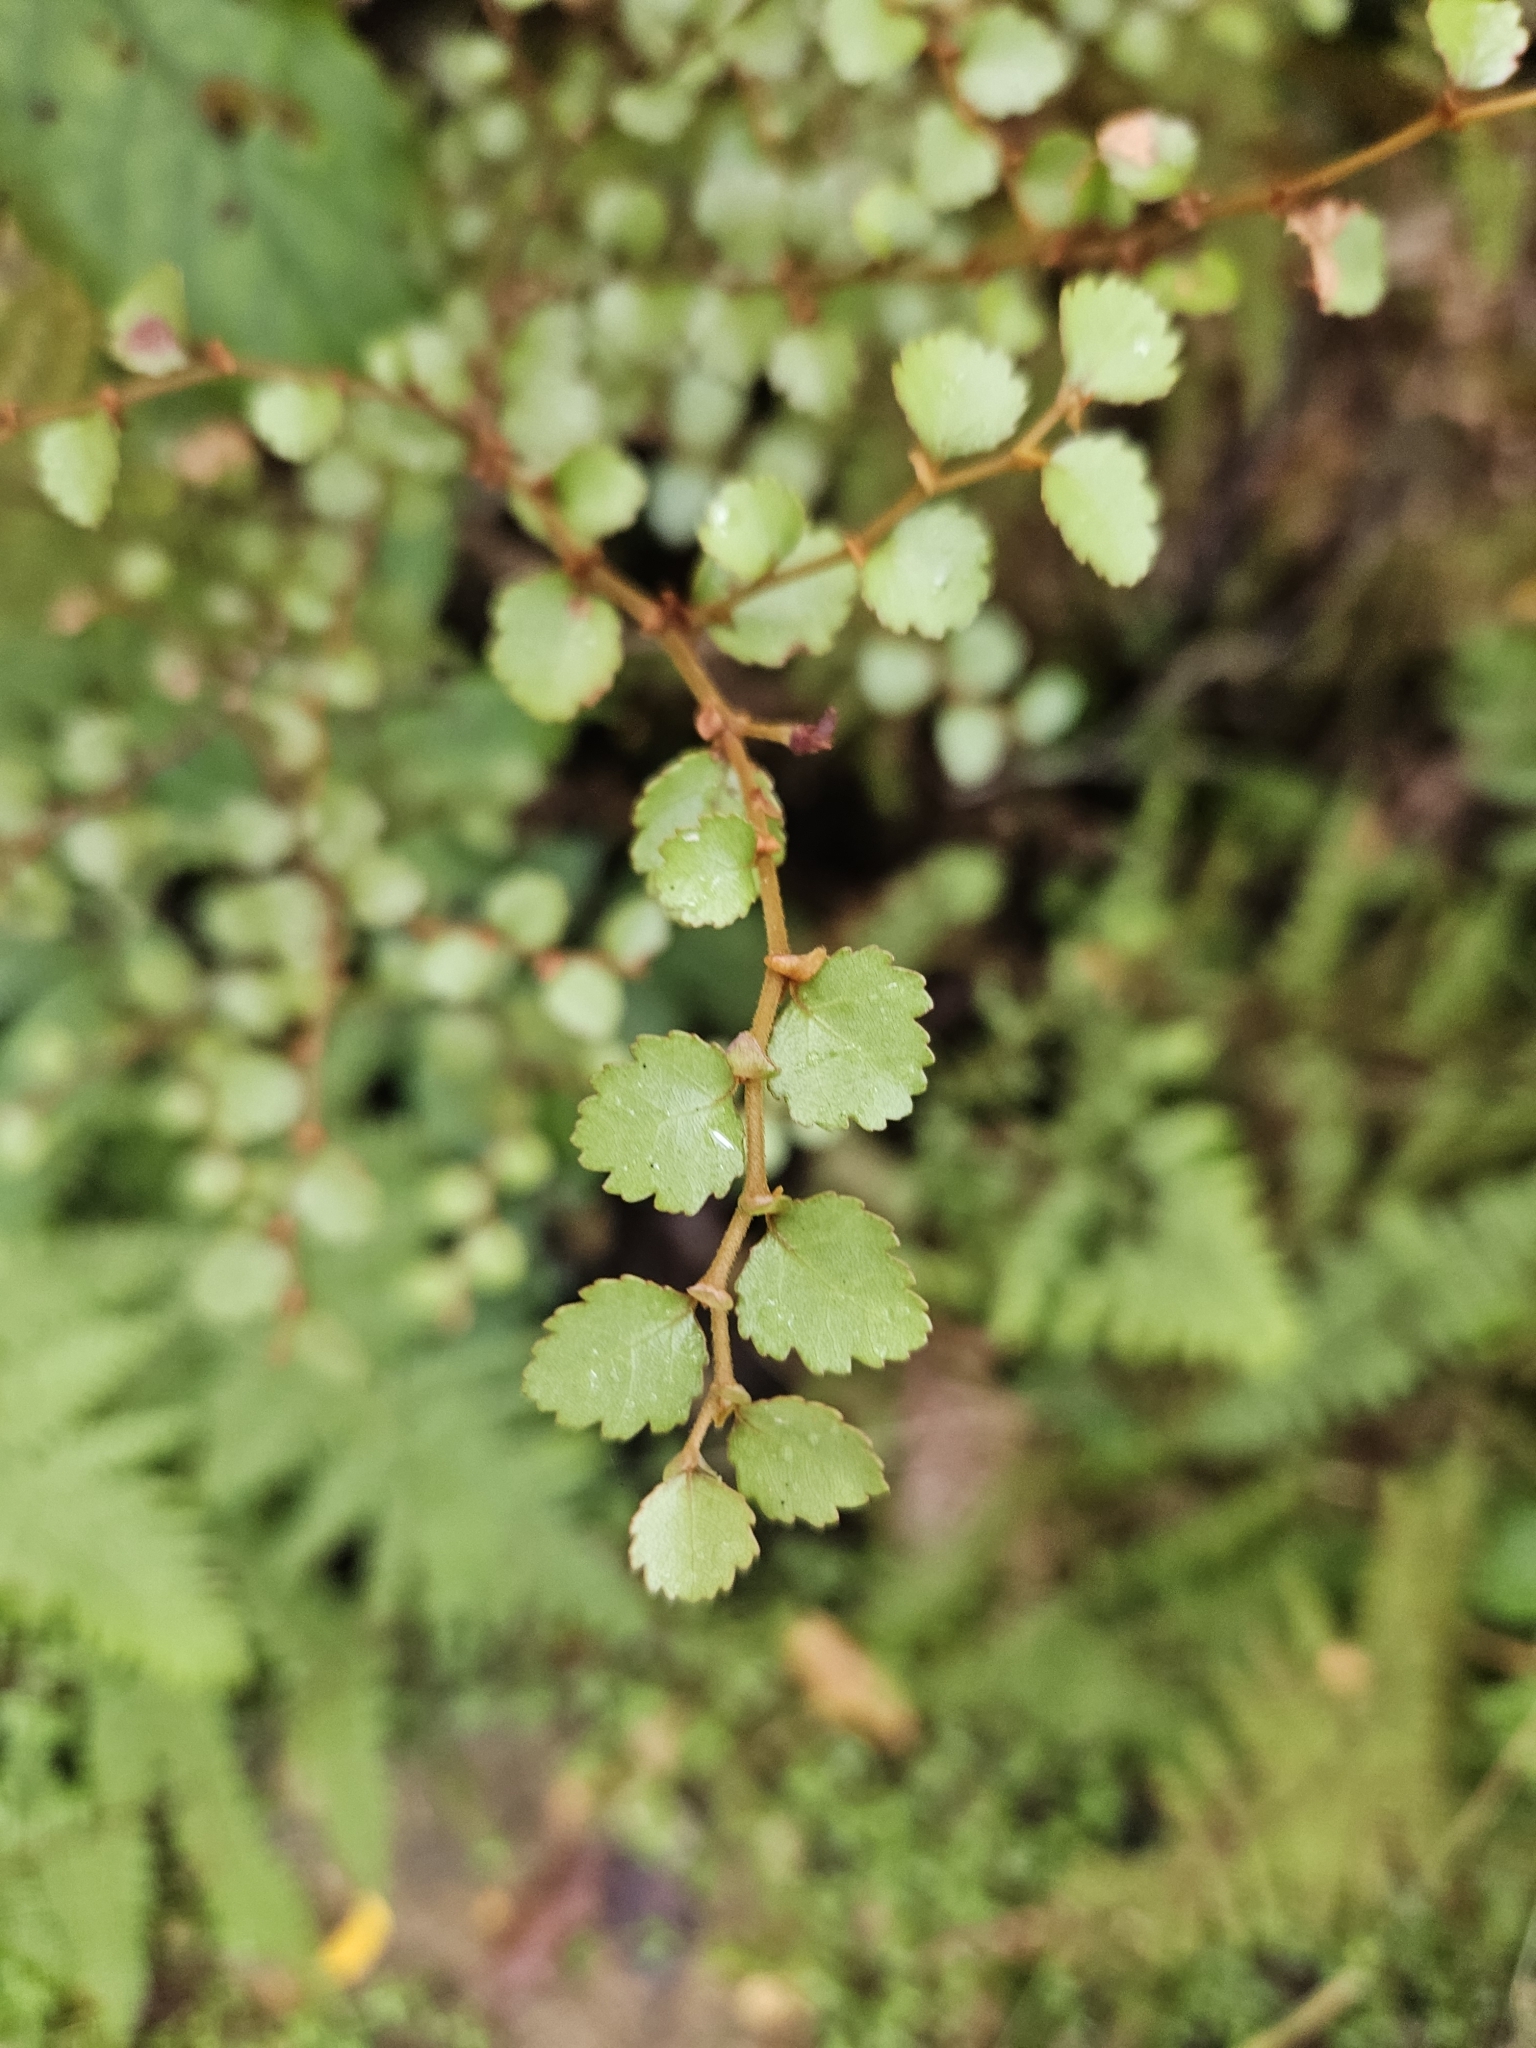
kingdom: Plantae
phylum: Tracheophyta
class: Magnoliopsida
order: Fagales
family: Nothofagaceae
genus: Nothofagus
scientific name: Nothofagus menziesii
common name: Silver beech
